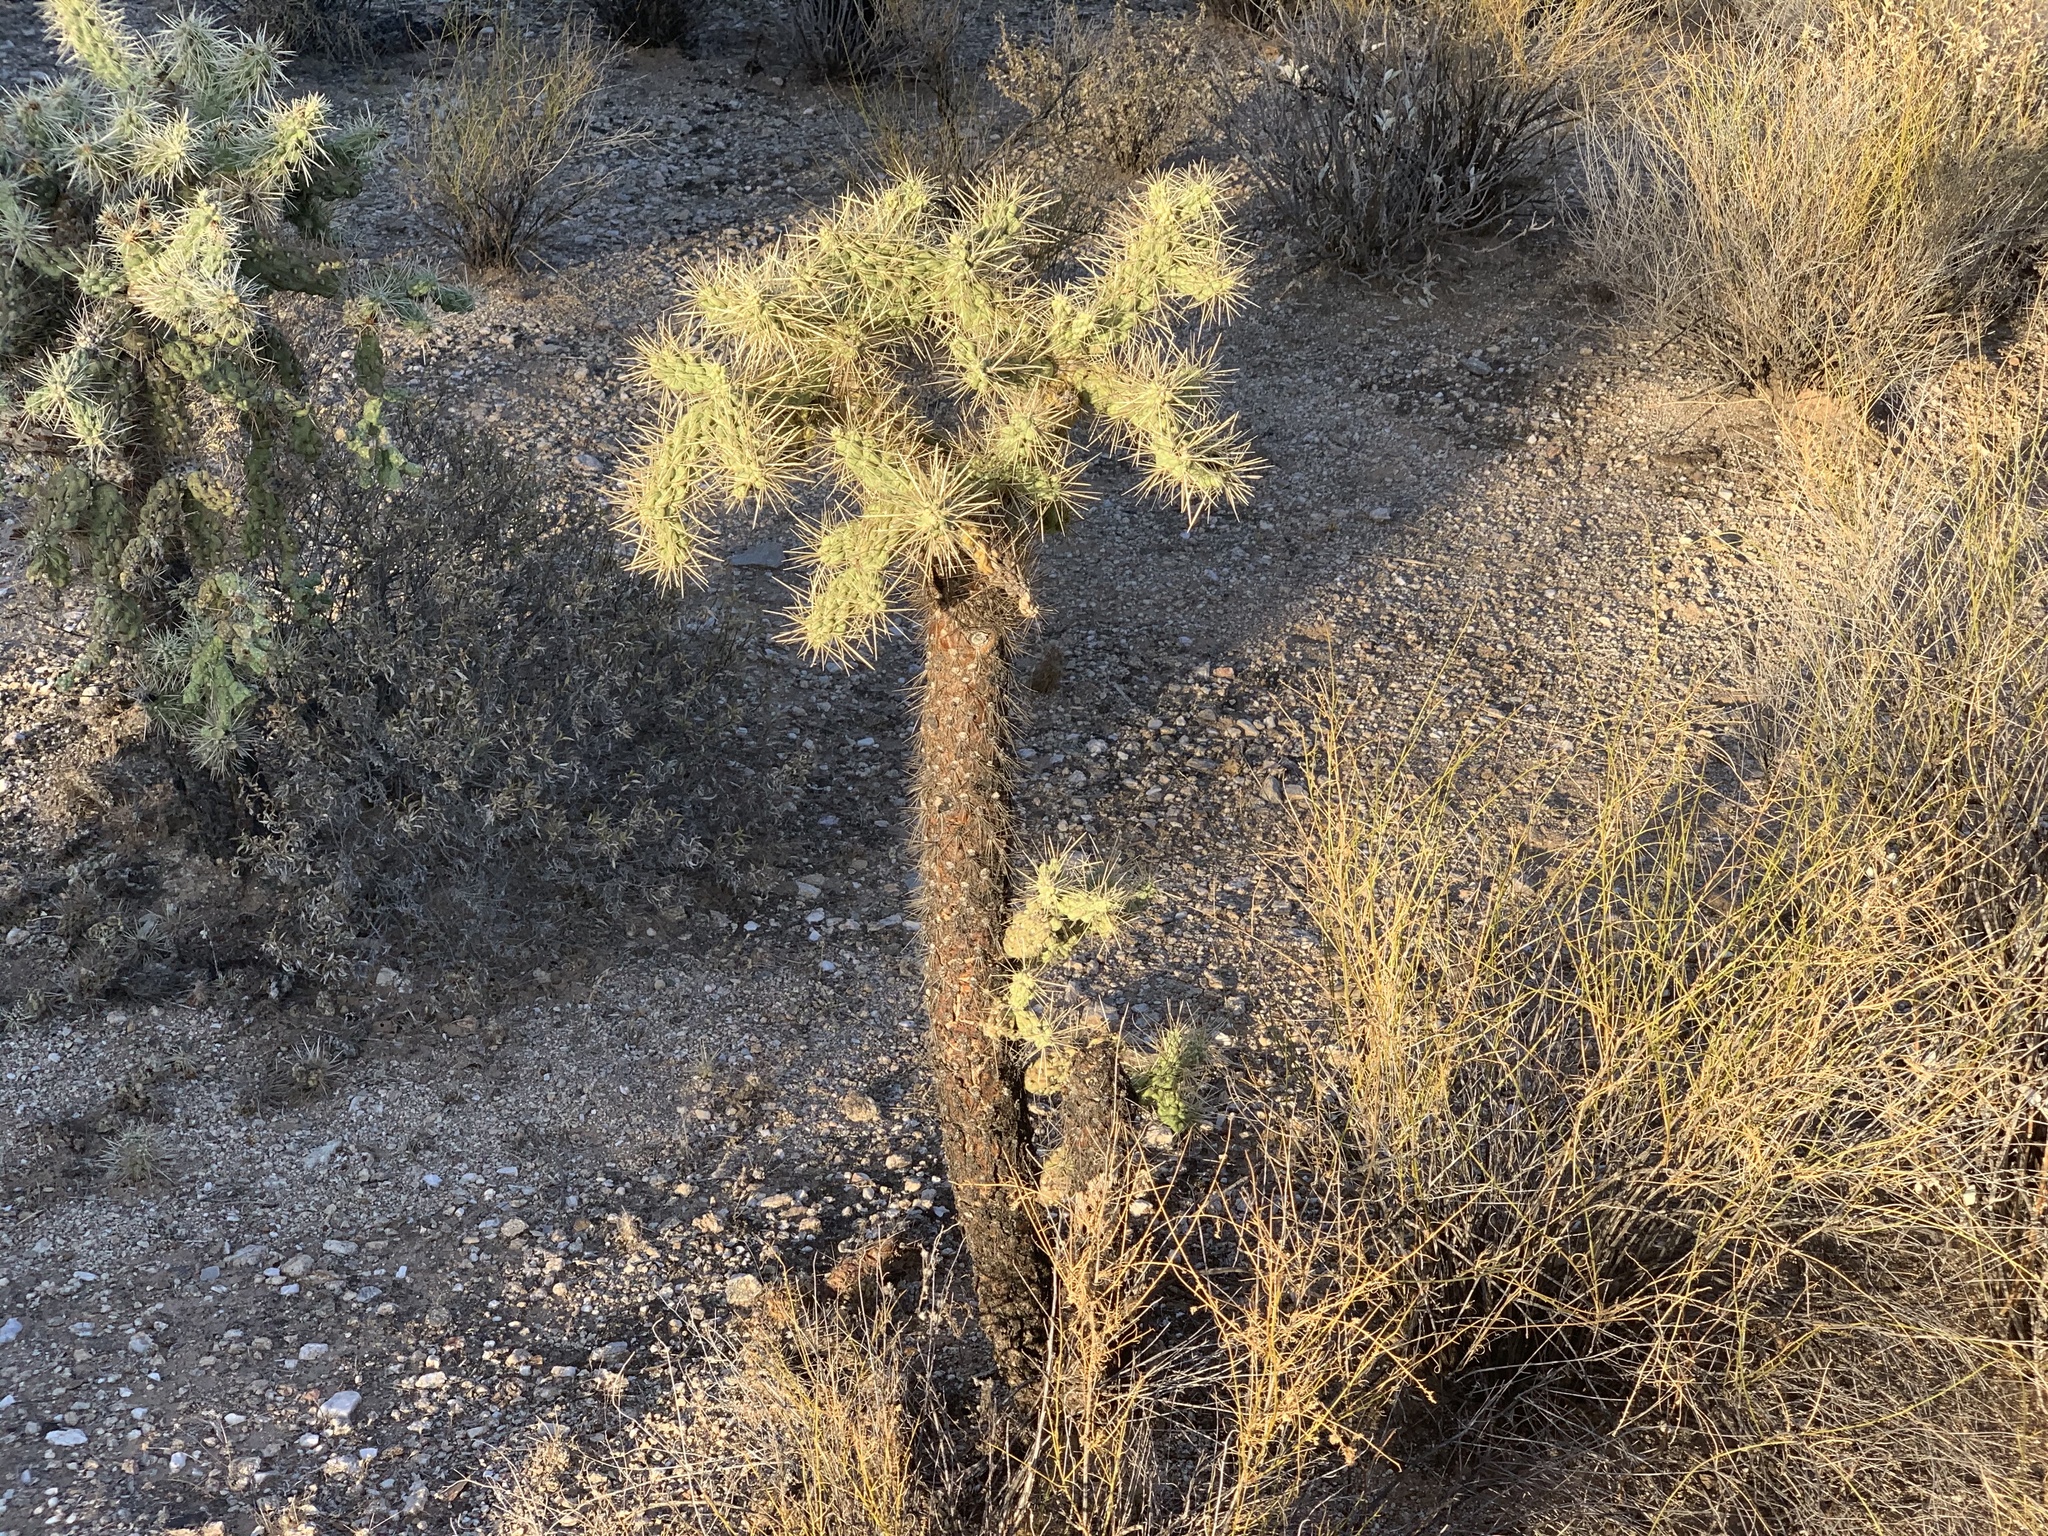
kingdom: Plantae
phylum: Tracheophyta
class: Magnoliopsida
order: Caryophyllales
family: Cactaceae
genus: Cylindropuntia
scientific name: Cylindropuntia fulgida
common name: Jumping cholla
